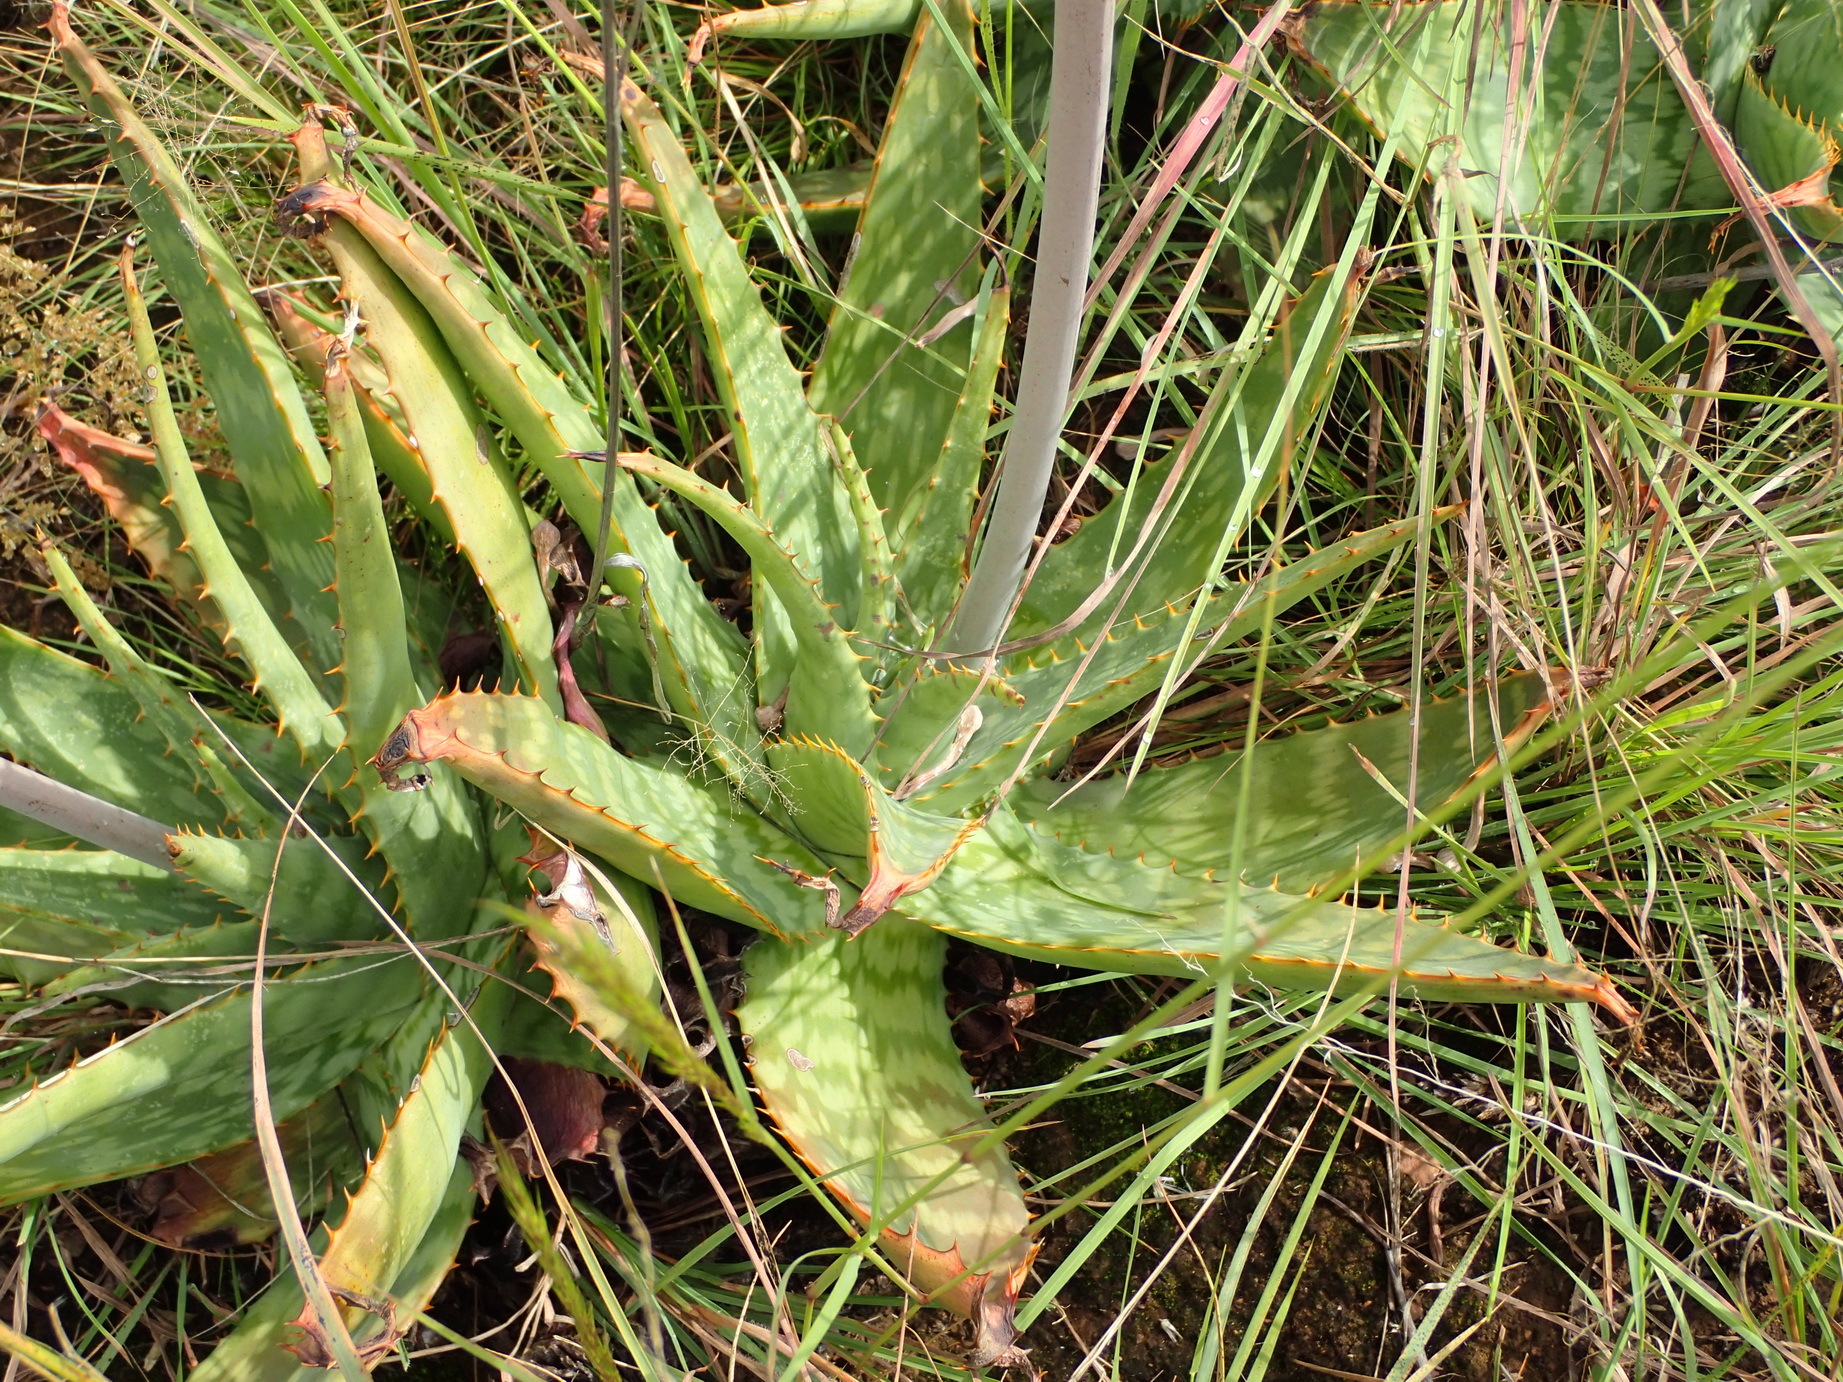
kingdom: Plantae
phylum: Tracheophyta
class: Liliopsida
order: Asparagales
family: Asphodelaceae
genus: Aloe
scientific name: Aloe davyana
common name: Spotted aloe
